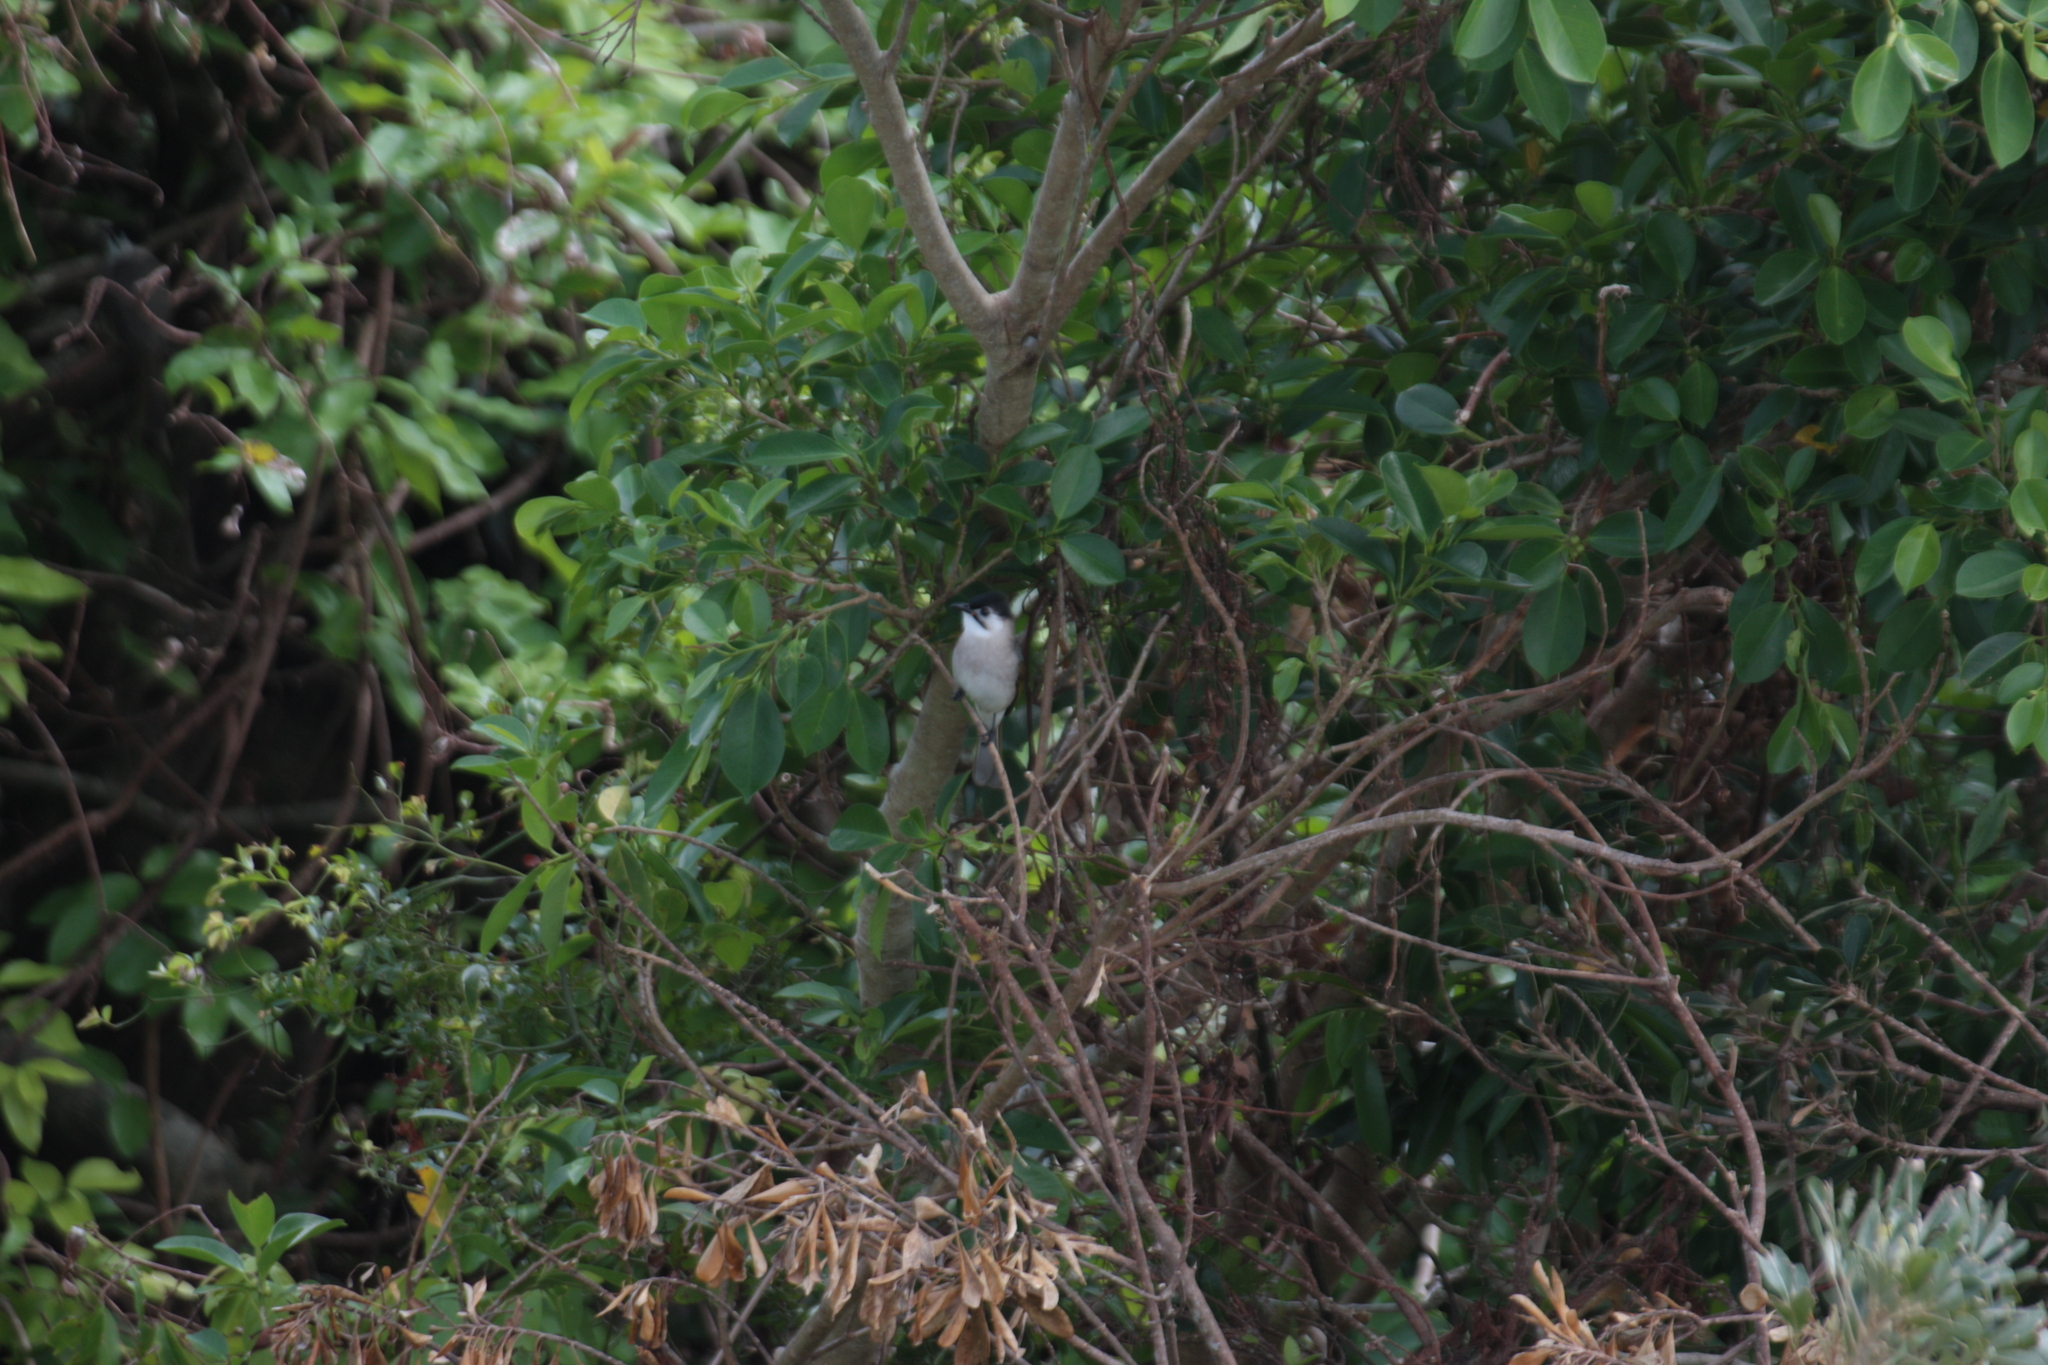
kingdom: Animalia
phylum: Chordata
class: Aves
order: Passeriformes
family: Pycnonotidae
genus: Pycnonotus
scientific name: Pycnonotus taivanus
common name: Styan's bulbul
